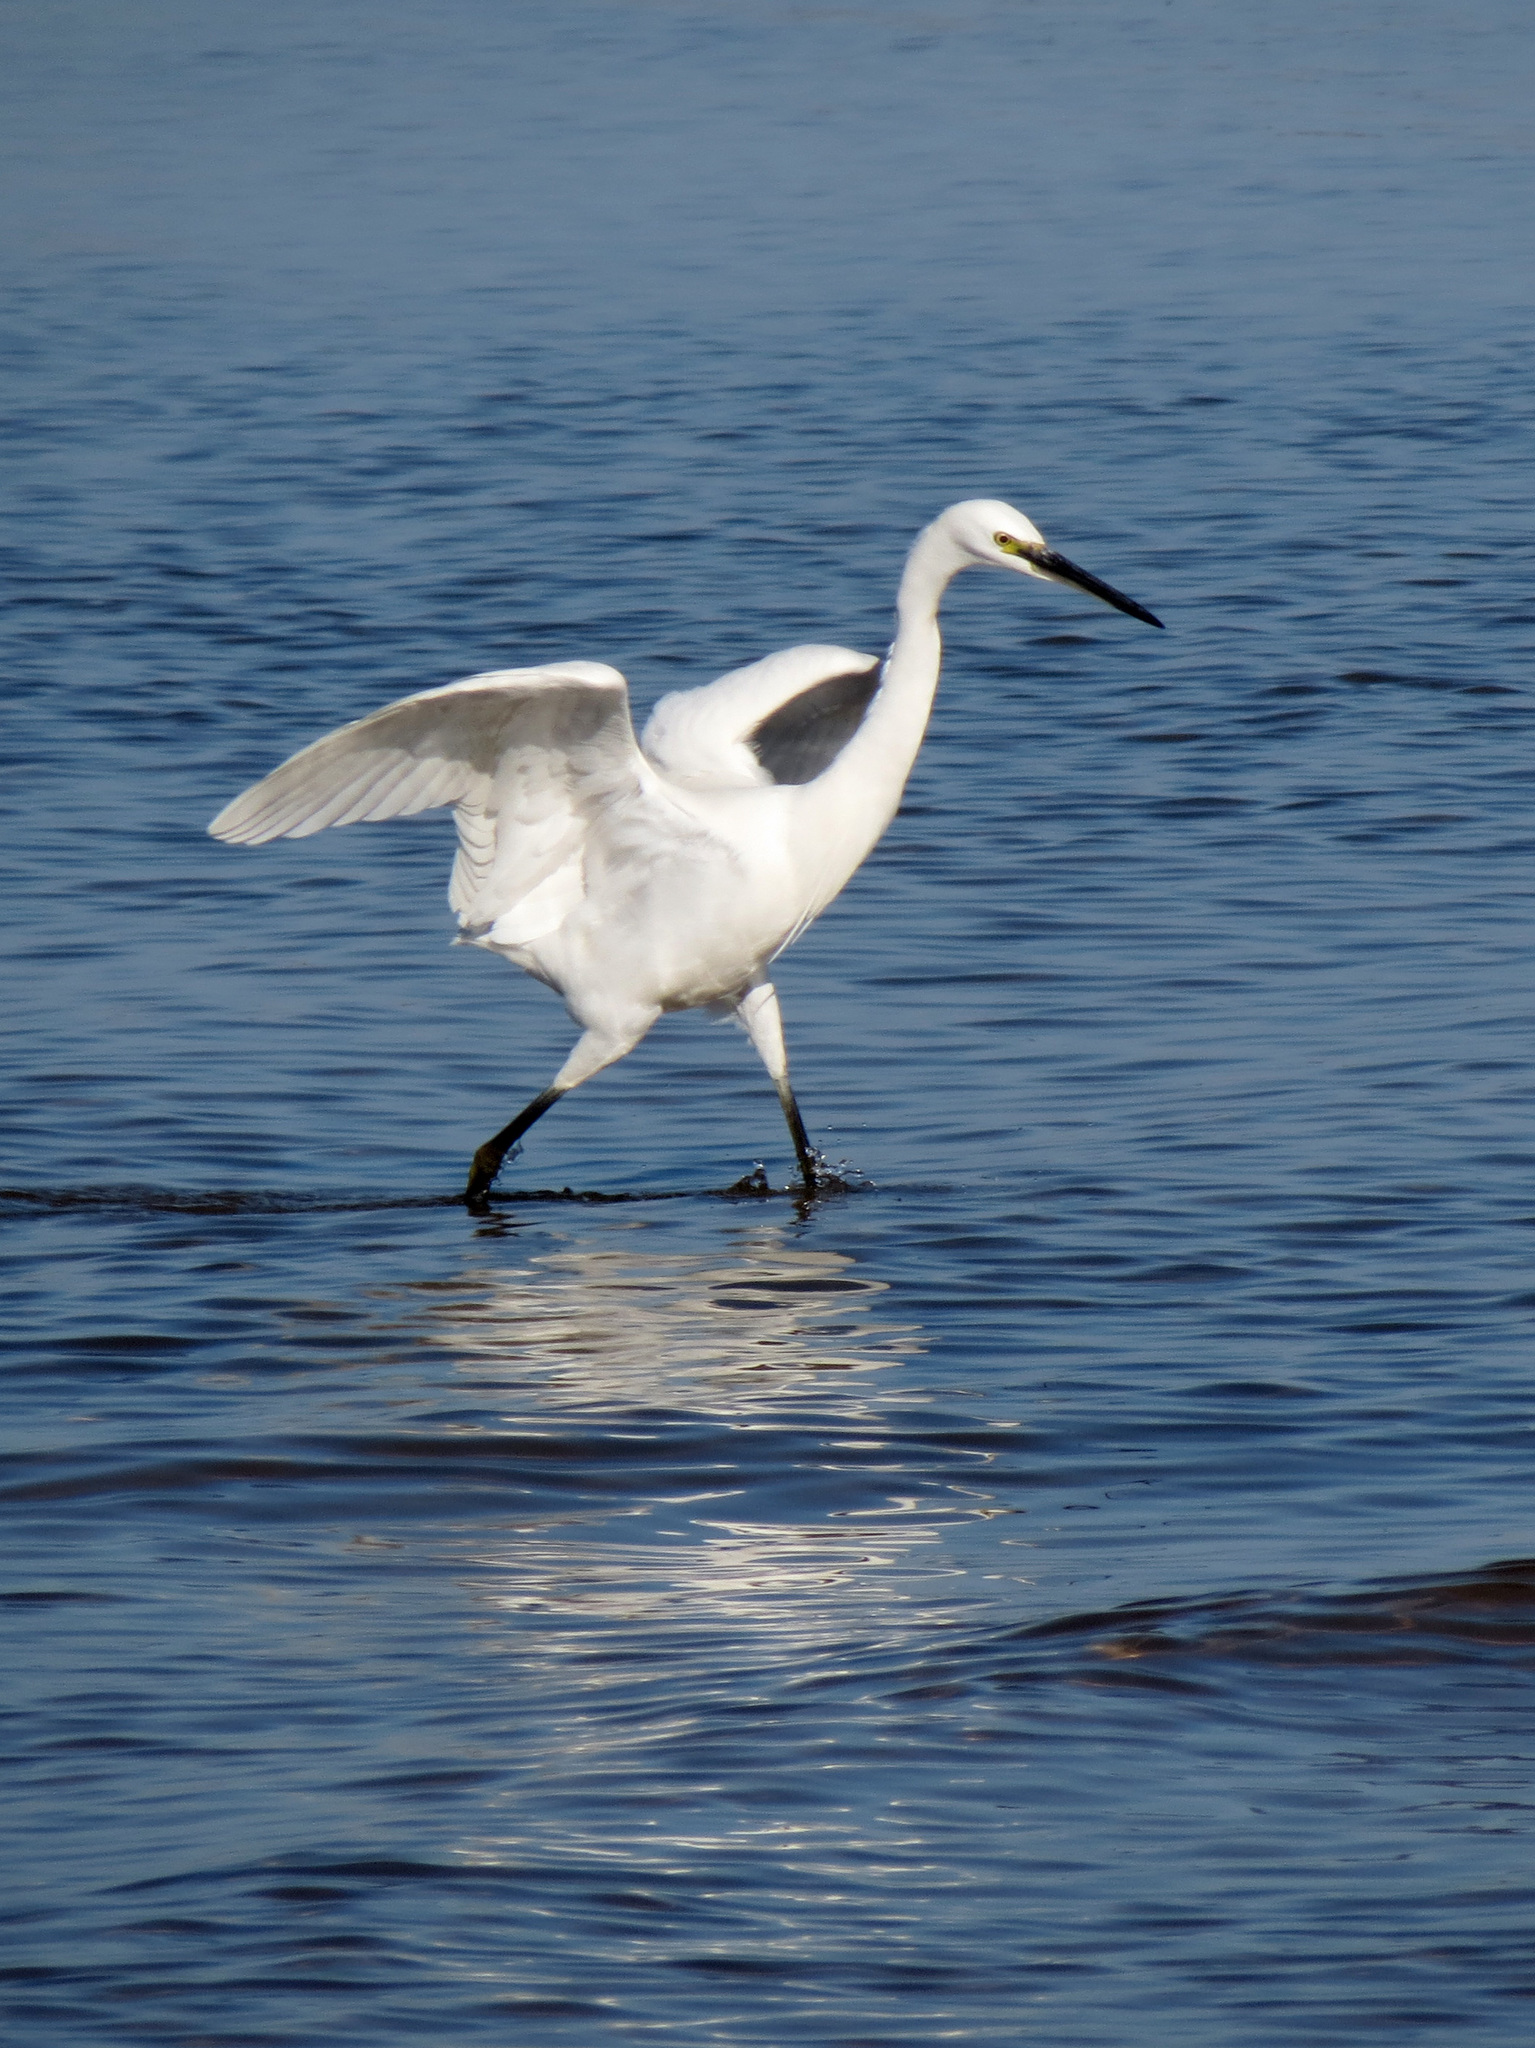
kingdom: Animalia
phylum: Chordata
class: Aves
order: Pelecaniformes
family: Ardeidae
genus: Egretta
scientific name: Egretta garzetta
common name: Little egret
